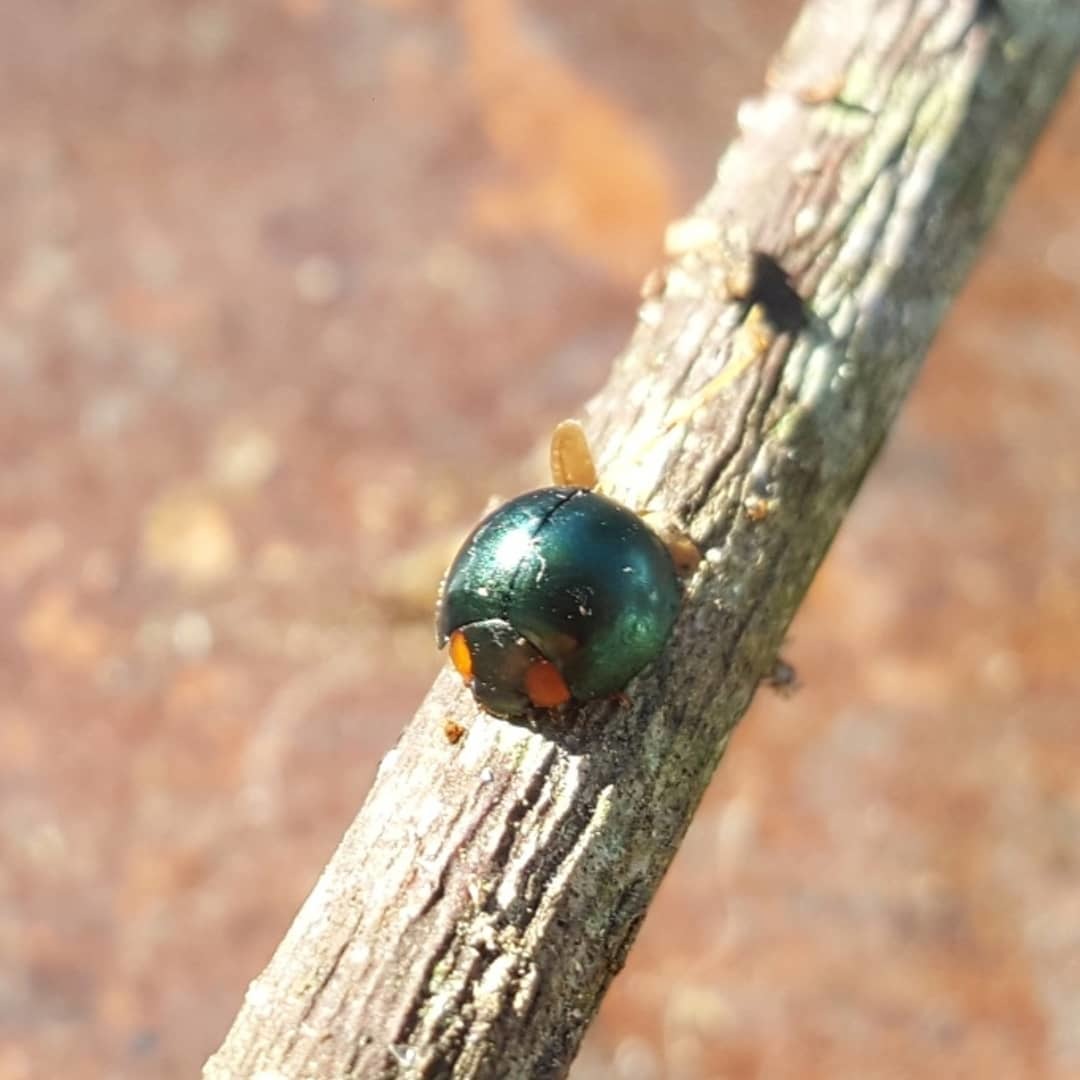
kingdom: Animalia
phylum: Arthropoda
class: Insecta
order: Coleoptera
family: Coccinellidae
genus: Curinus
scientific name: Curinus coeruleus
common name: Ladybird beetle
